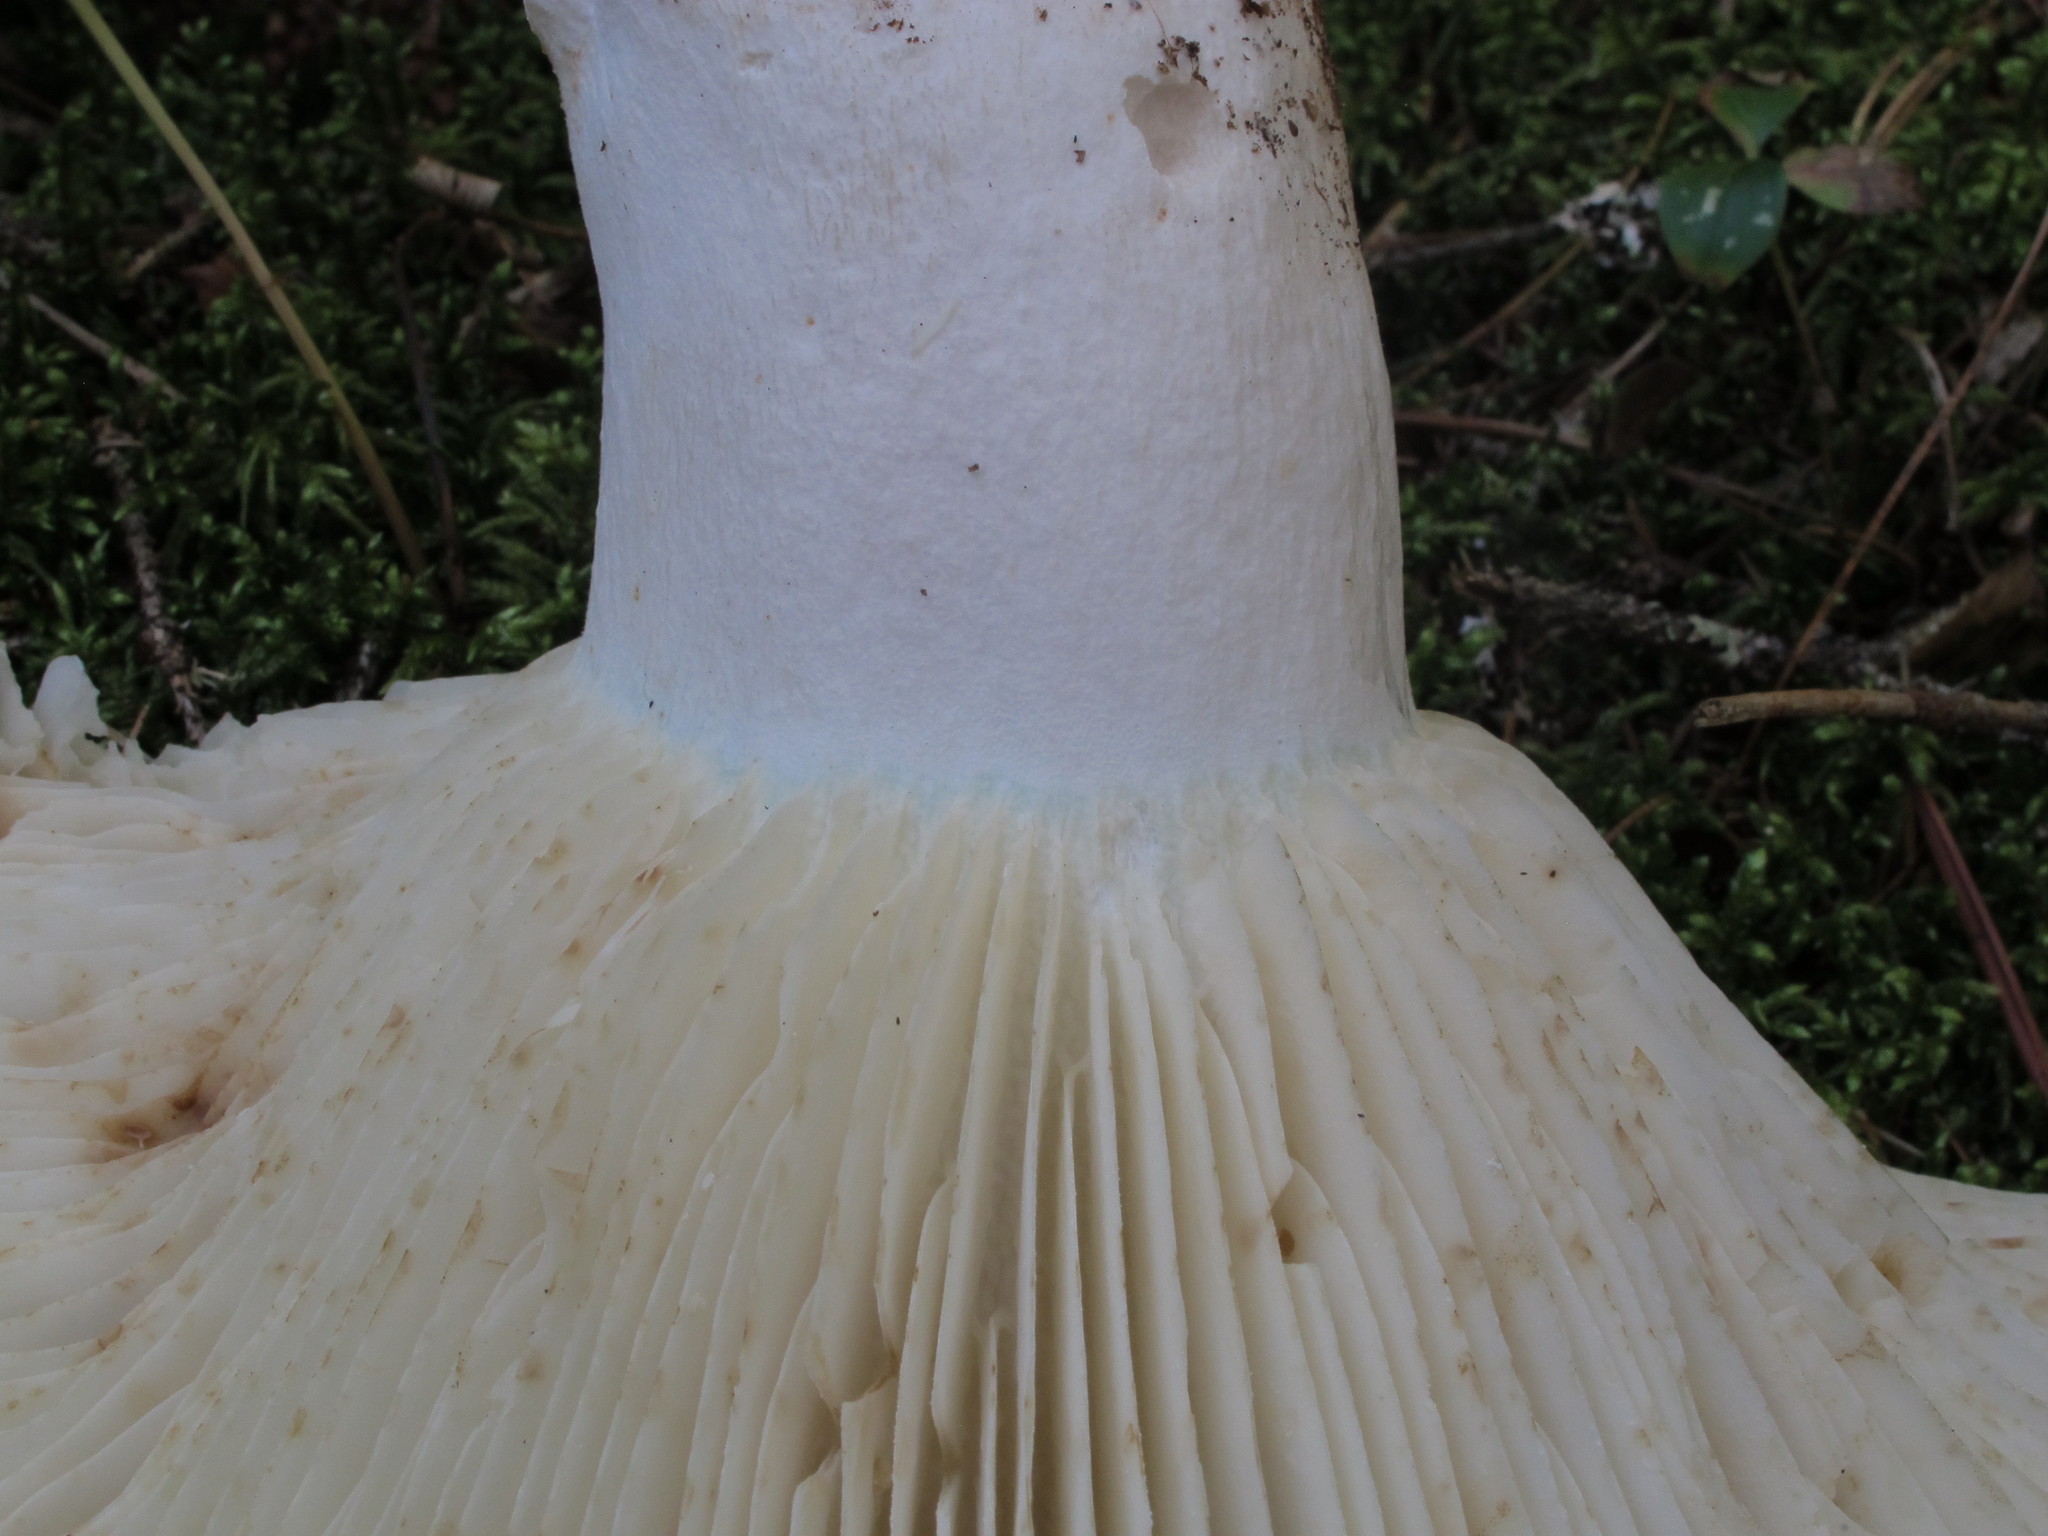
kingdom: Fungi
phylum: Basidiomycota
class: Agaricomycetes
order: Russulales
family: Russulaceae
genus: Russula
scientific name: Russula brevipes
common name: Short-stemmed russula
